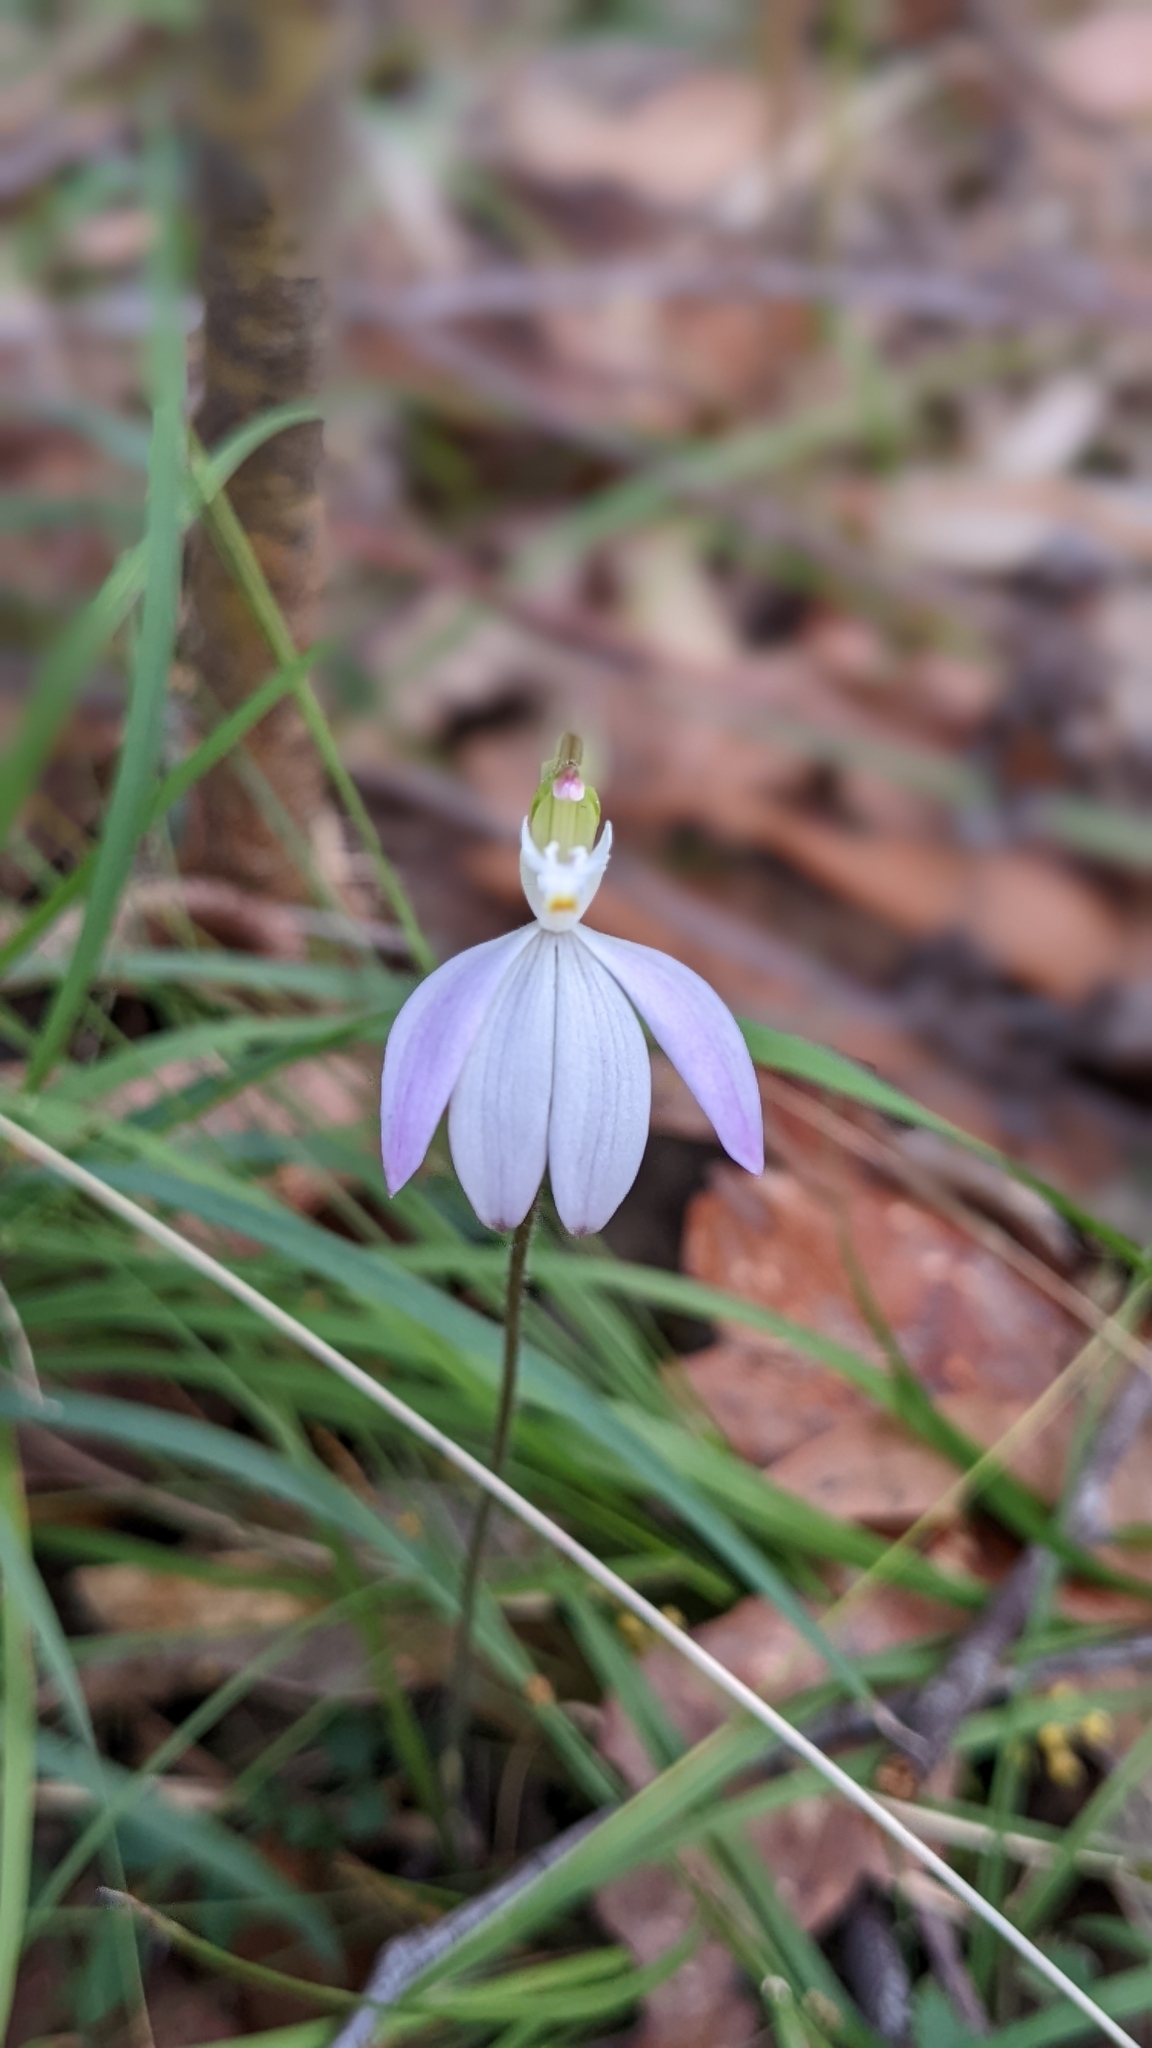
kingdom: Plantae
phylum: Tracheophyta
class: Liliopsida
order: Asparagales
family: Orchidaceae
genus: Caladenia
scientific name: Caladenia catenata
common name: White caladenia
